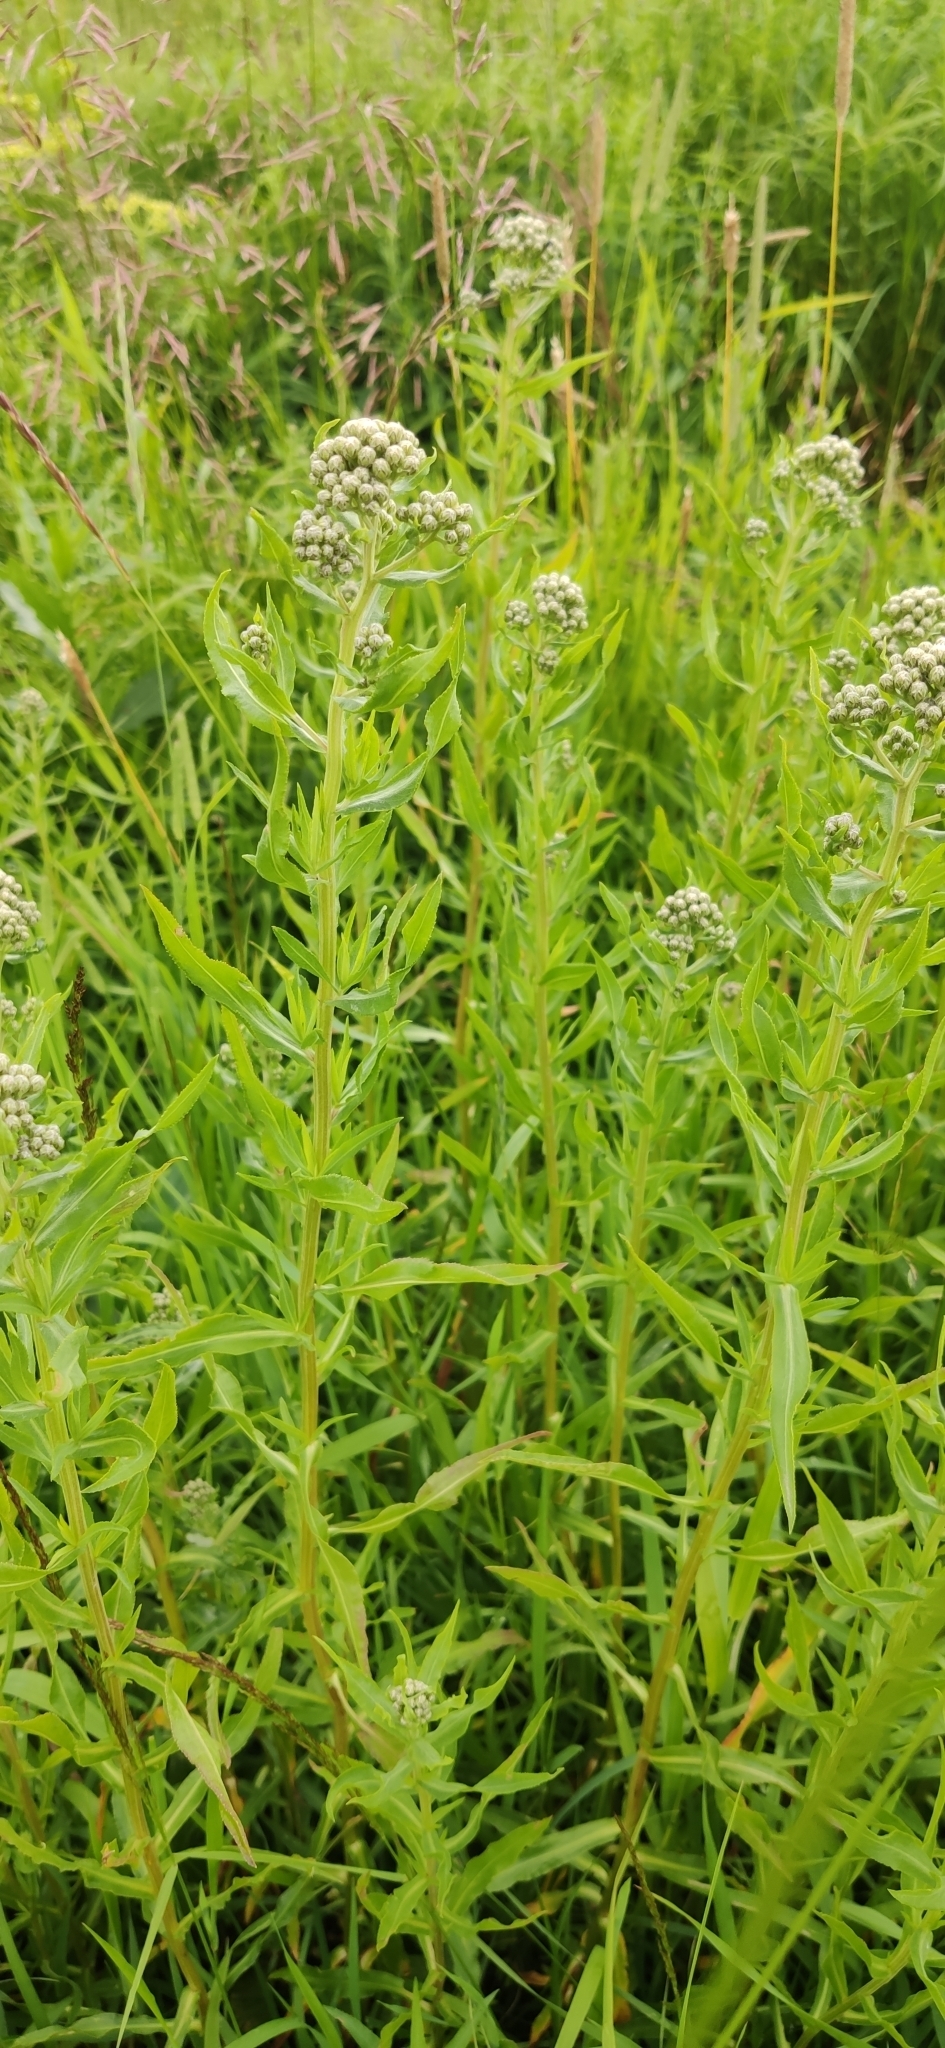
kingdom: Plantae
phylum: Tracheophyta
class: Magnoliopsida
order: Asterales
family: Asteraceae
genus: Achillea
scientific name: Achillea salicifolia
